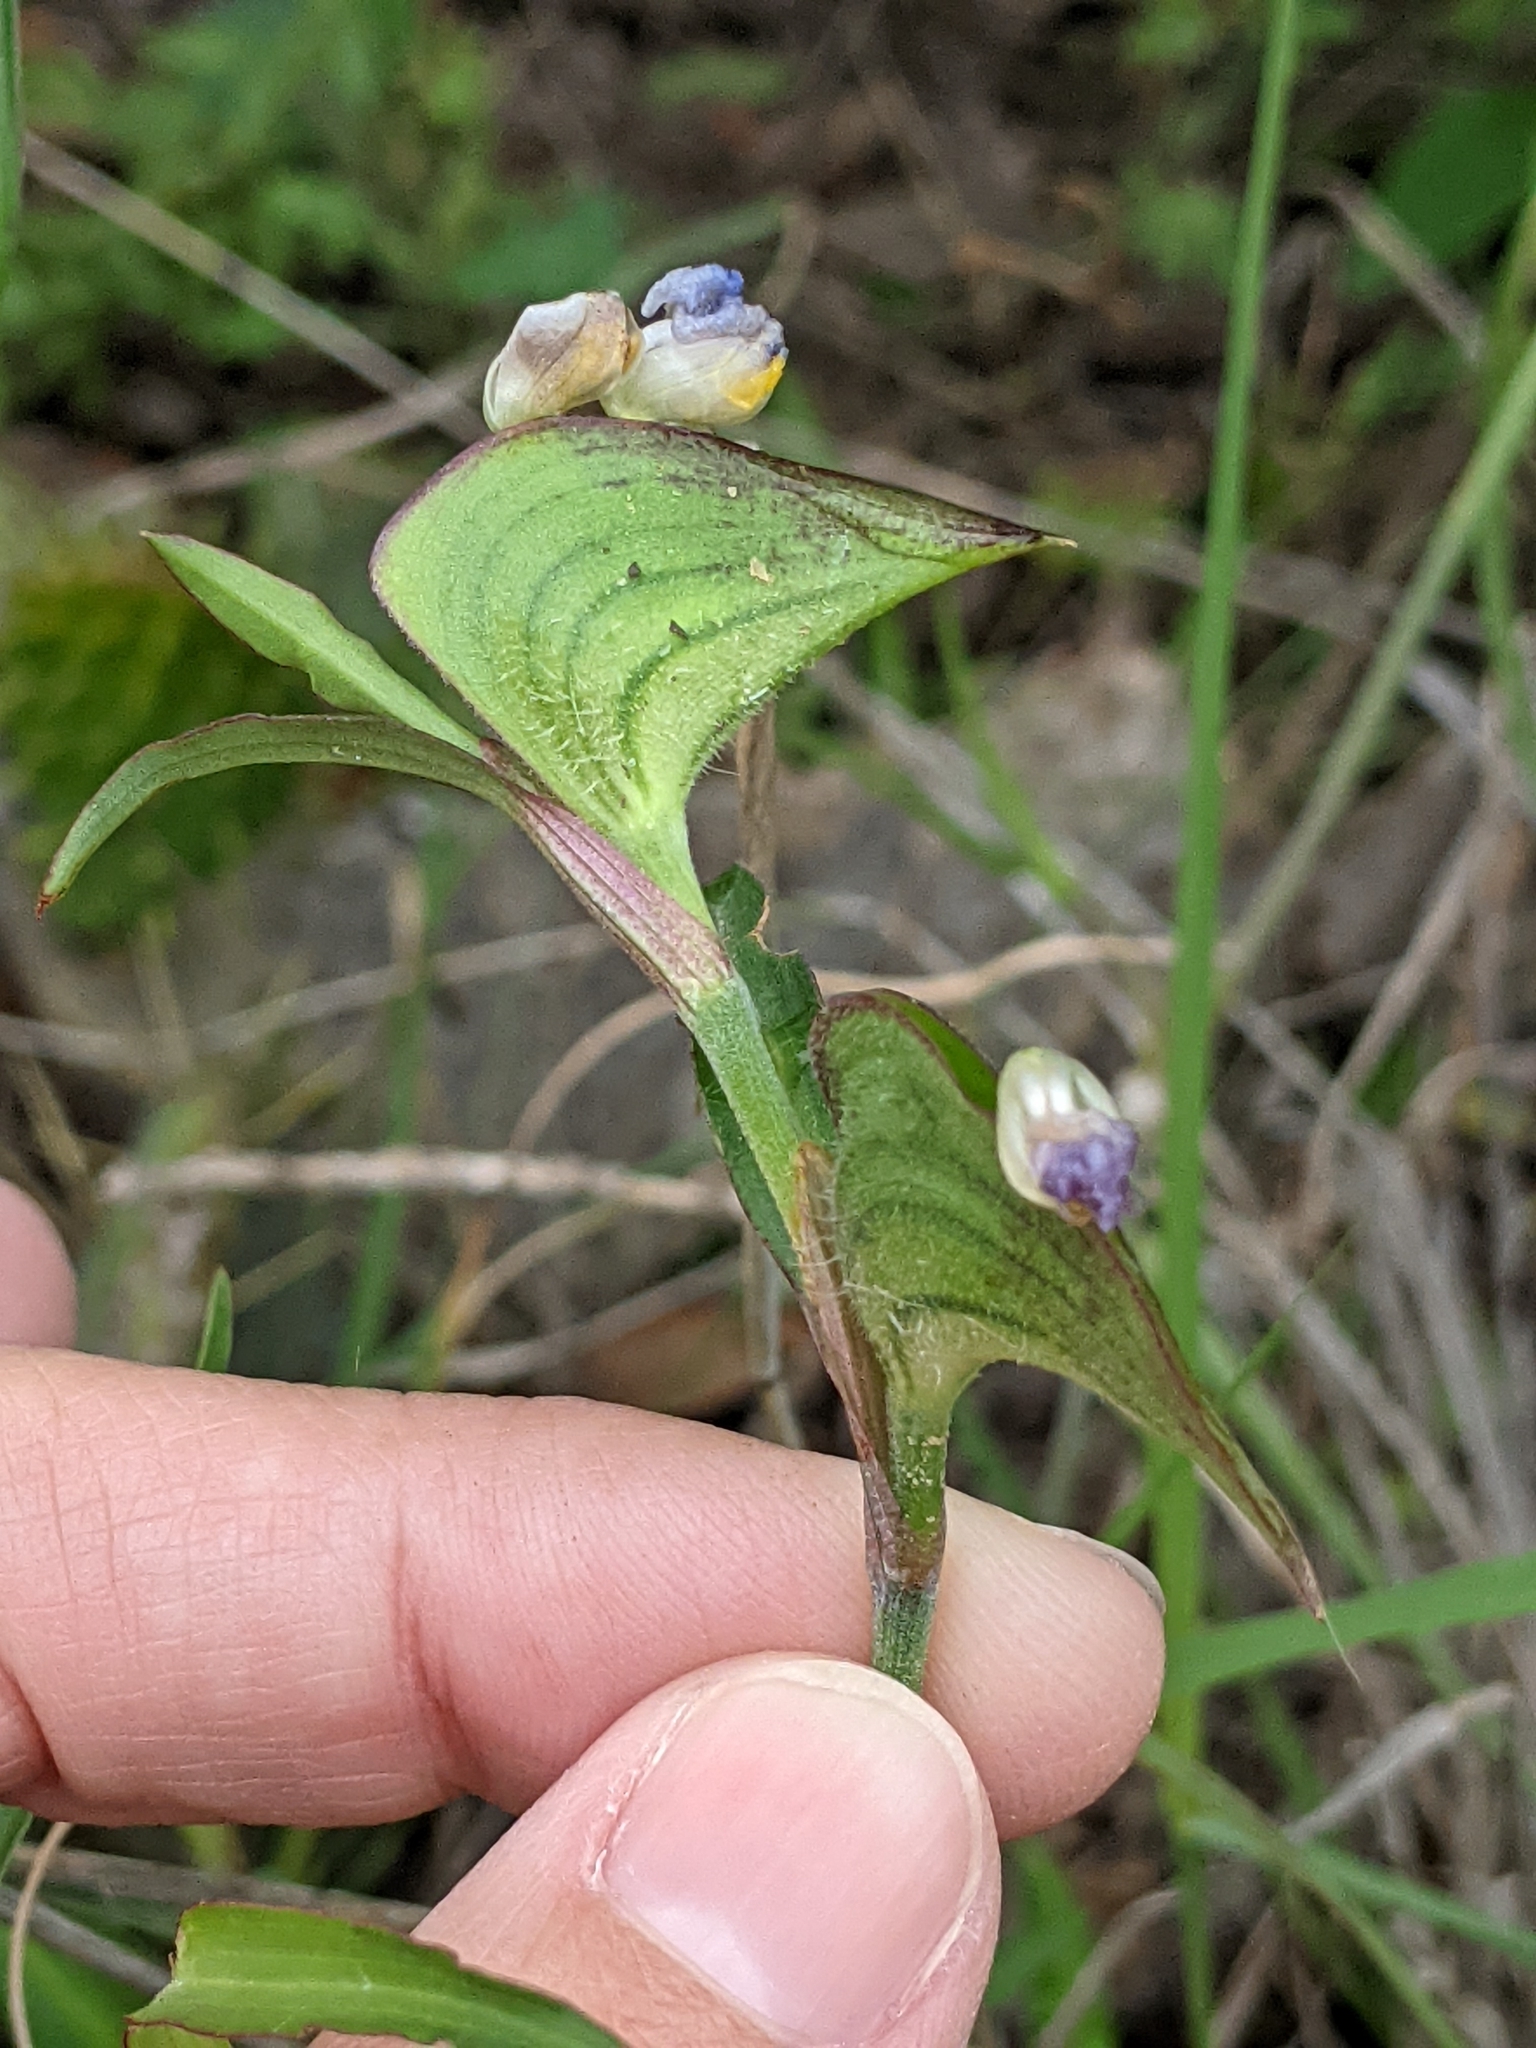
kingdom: Plantae
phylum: Tracheophyta
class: Liliopsida
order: Commelinales
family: Commelinaceae
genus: Commelina
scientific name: Commelina erecta
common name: Blousel blommetjie
